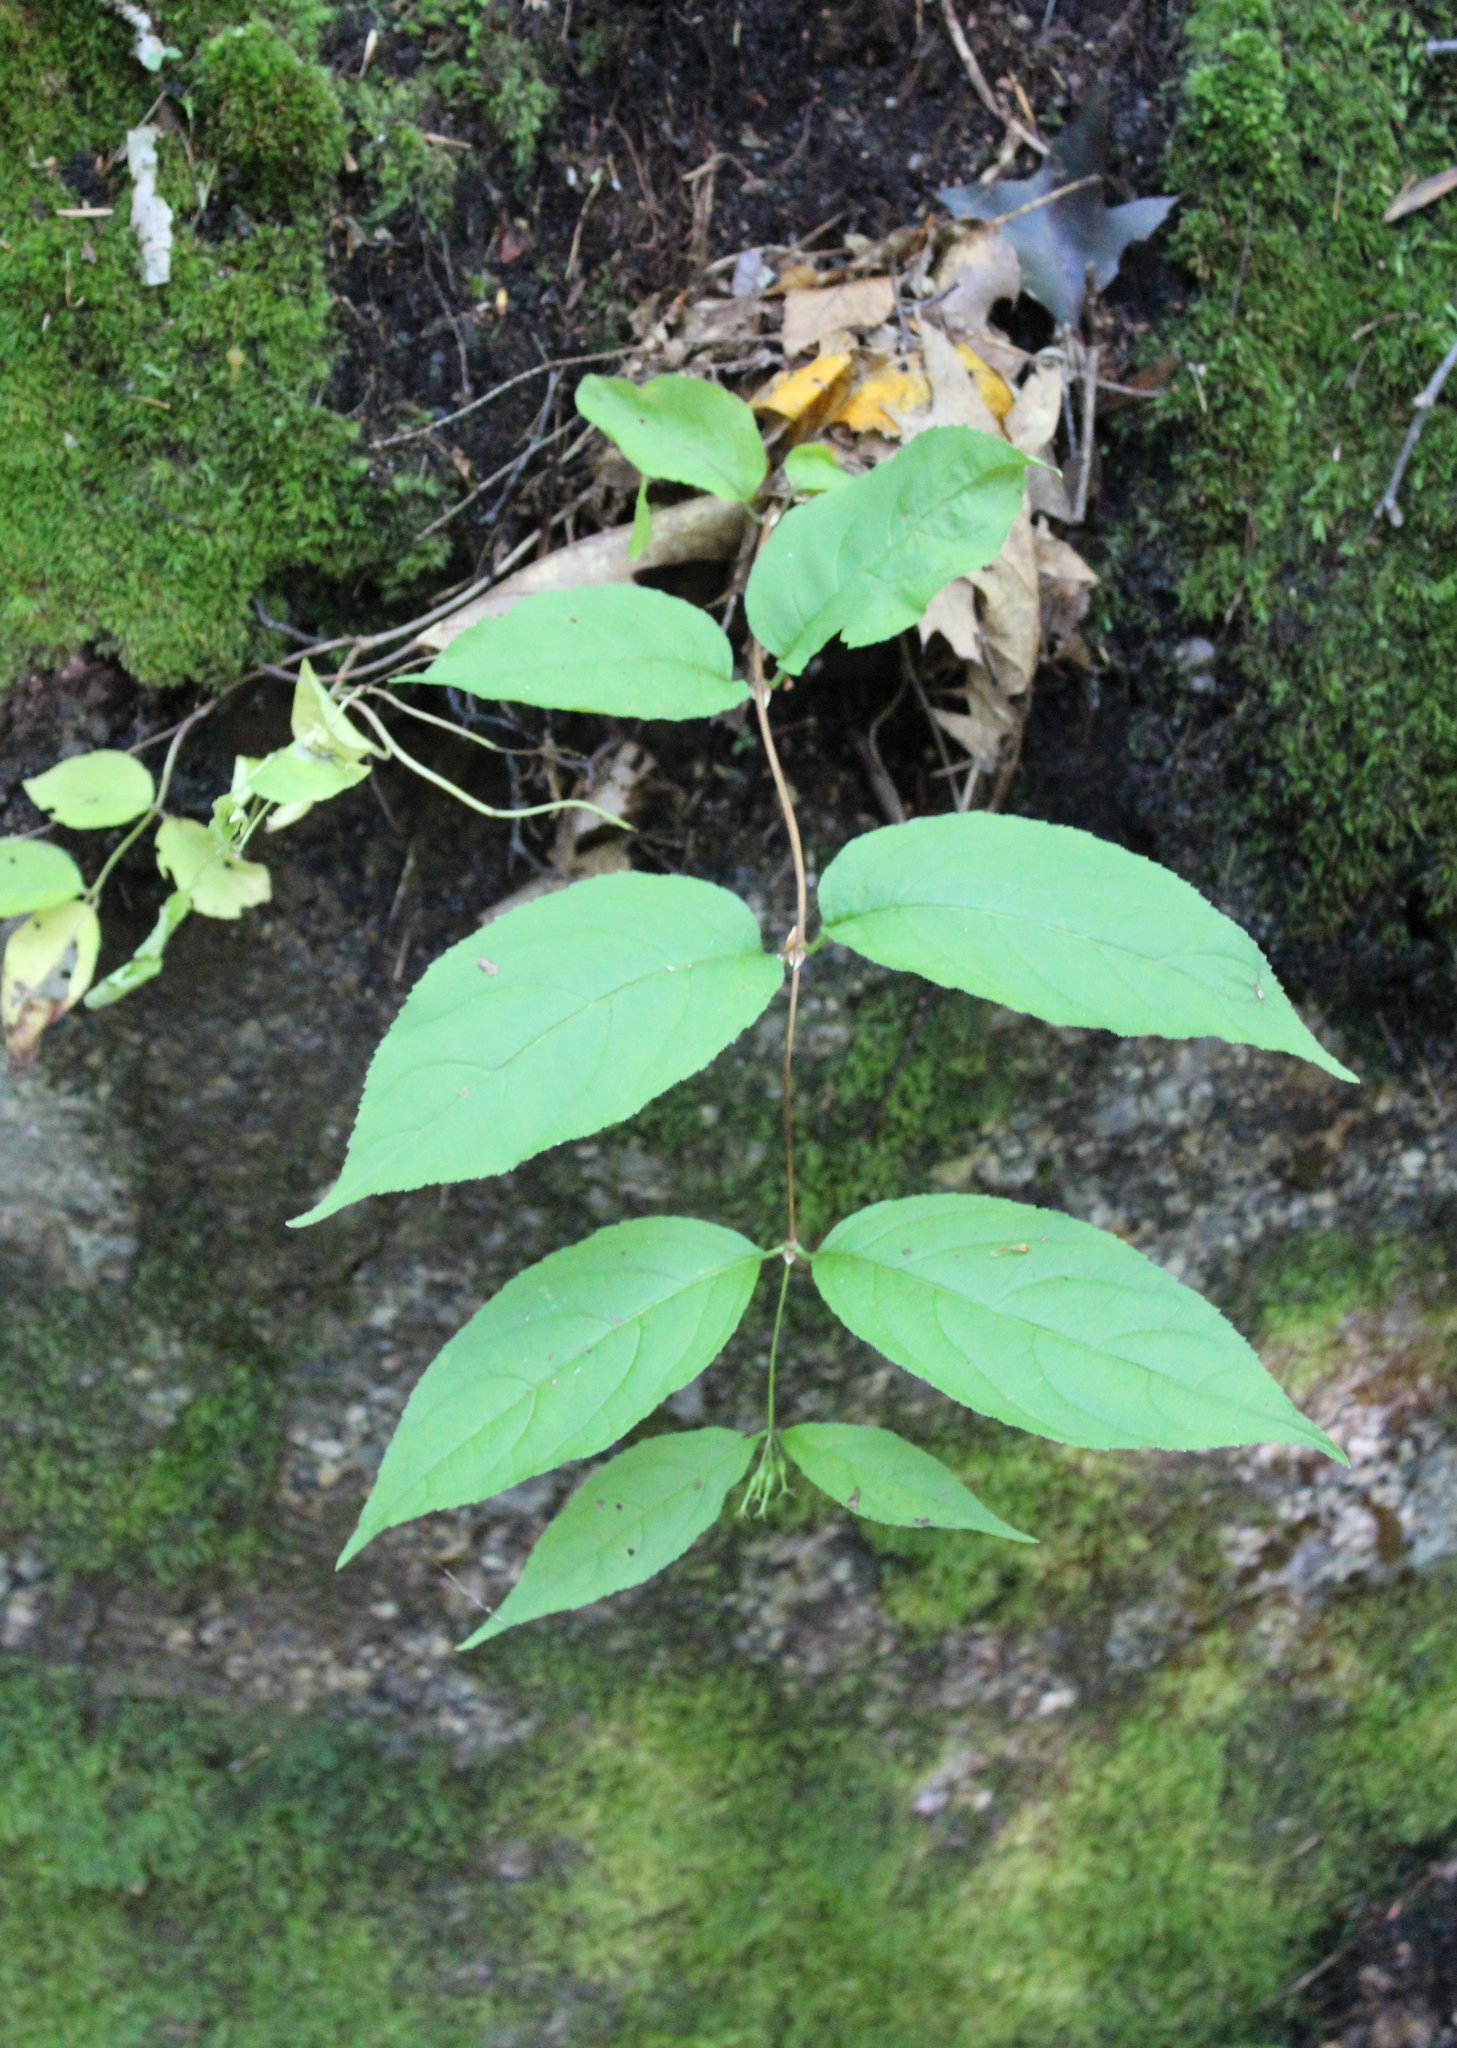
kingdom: Plantae
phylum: Tracheophyta
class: Magnoliopsida
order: Dipsacales
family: Caprifoliaceae
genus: Diervilla
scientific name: Diervilla lonicera
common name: Bush-honeysuckle
